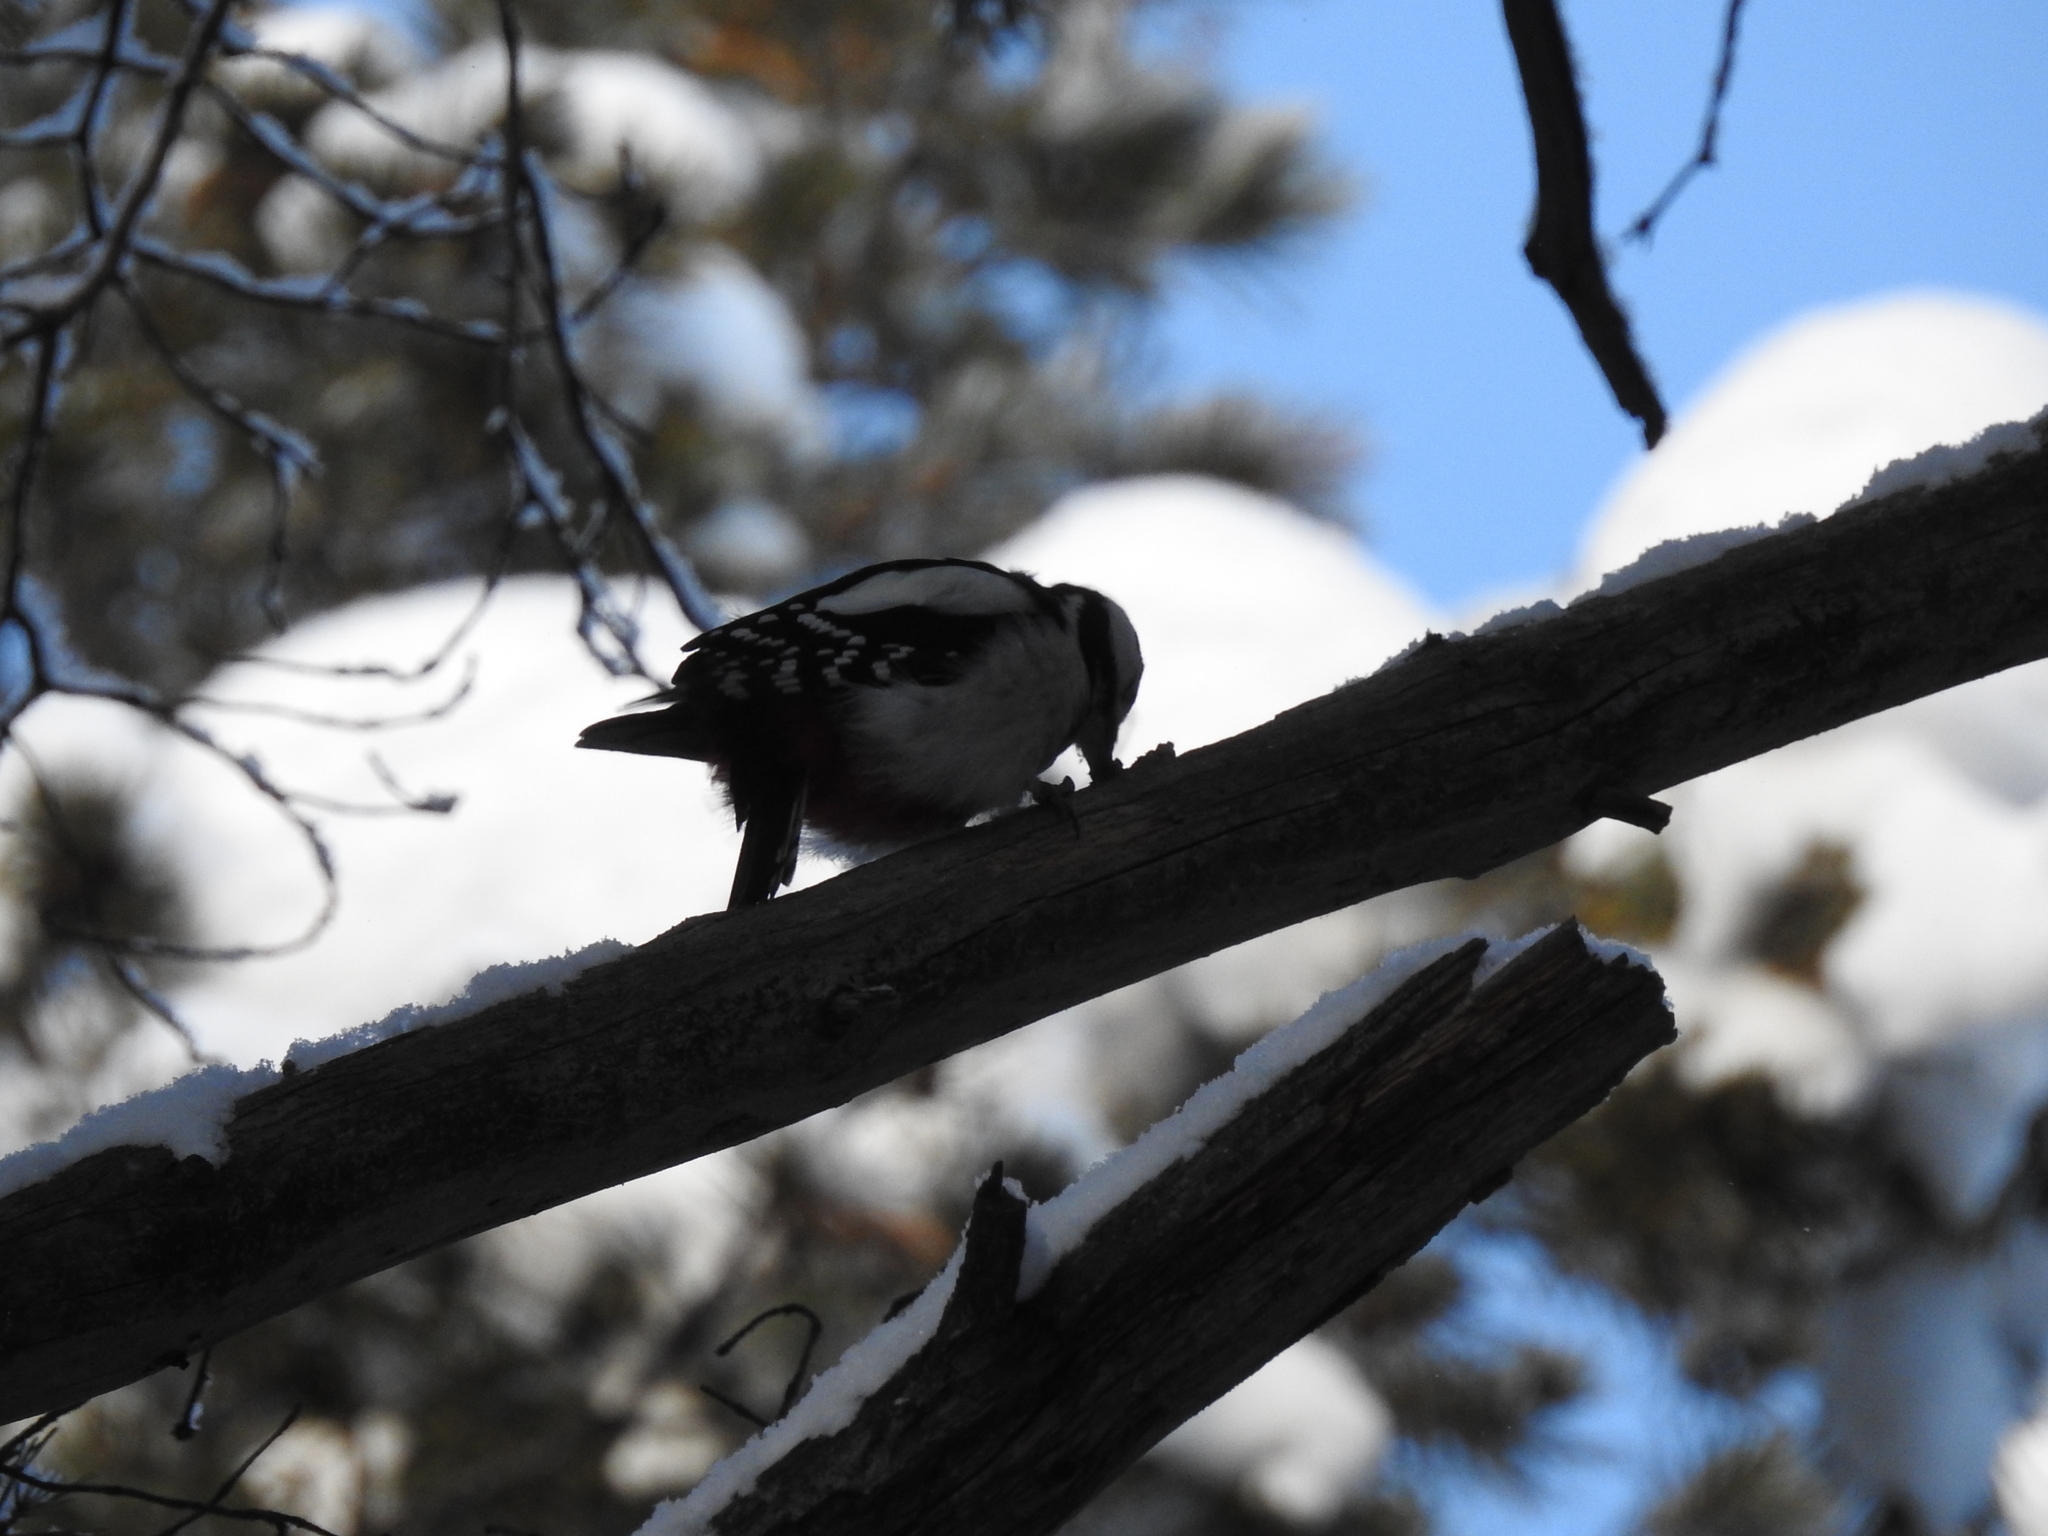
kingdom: Animalia
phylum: Chordata
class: Aves
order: Piciformes
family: Picidae
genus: Dendrocopos
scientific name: Dendrocopos major
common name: Great spotted woodpecker
